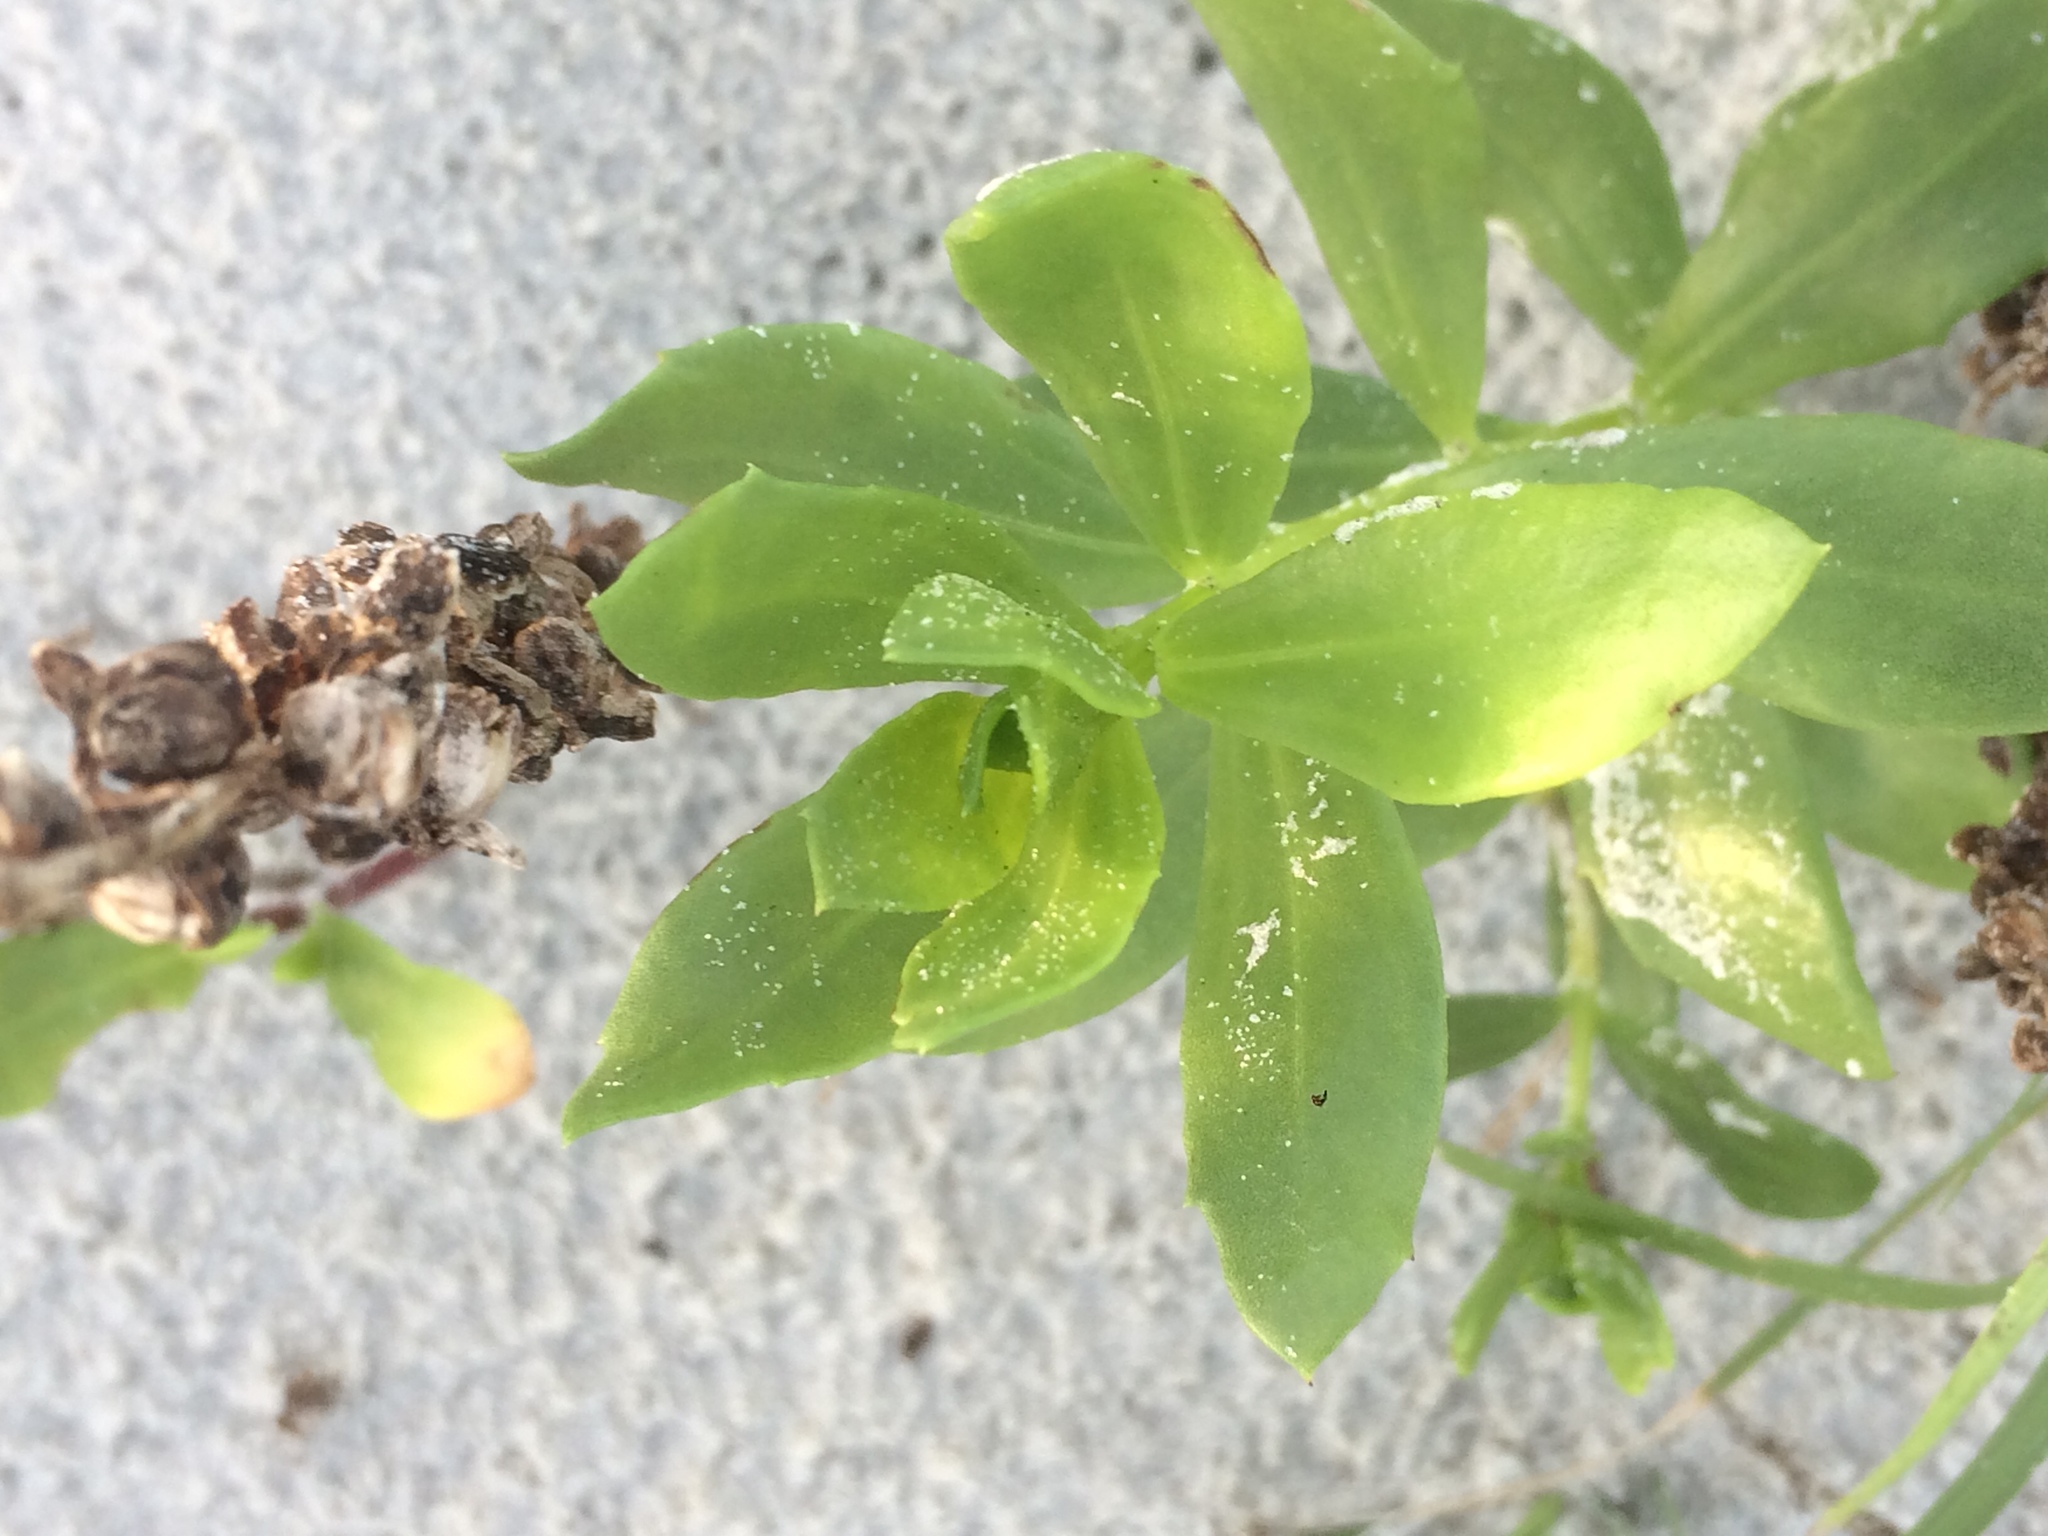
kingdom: Plantae
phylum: Tracheophyta
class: Magnoliopsida
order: Asterales
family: Asteraceae
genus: Iva
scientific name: Iva imbricata
